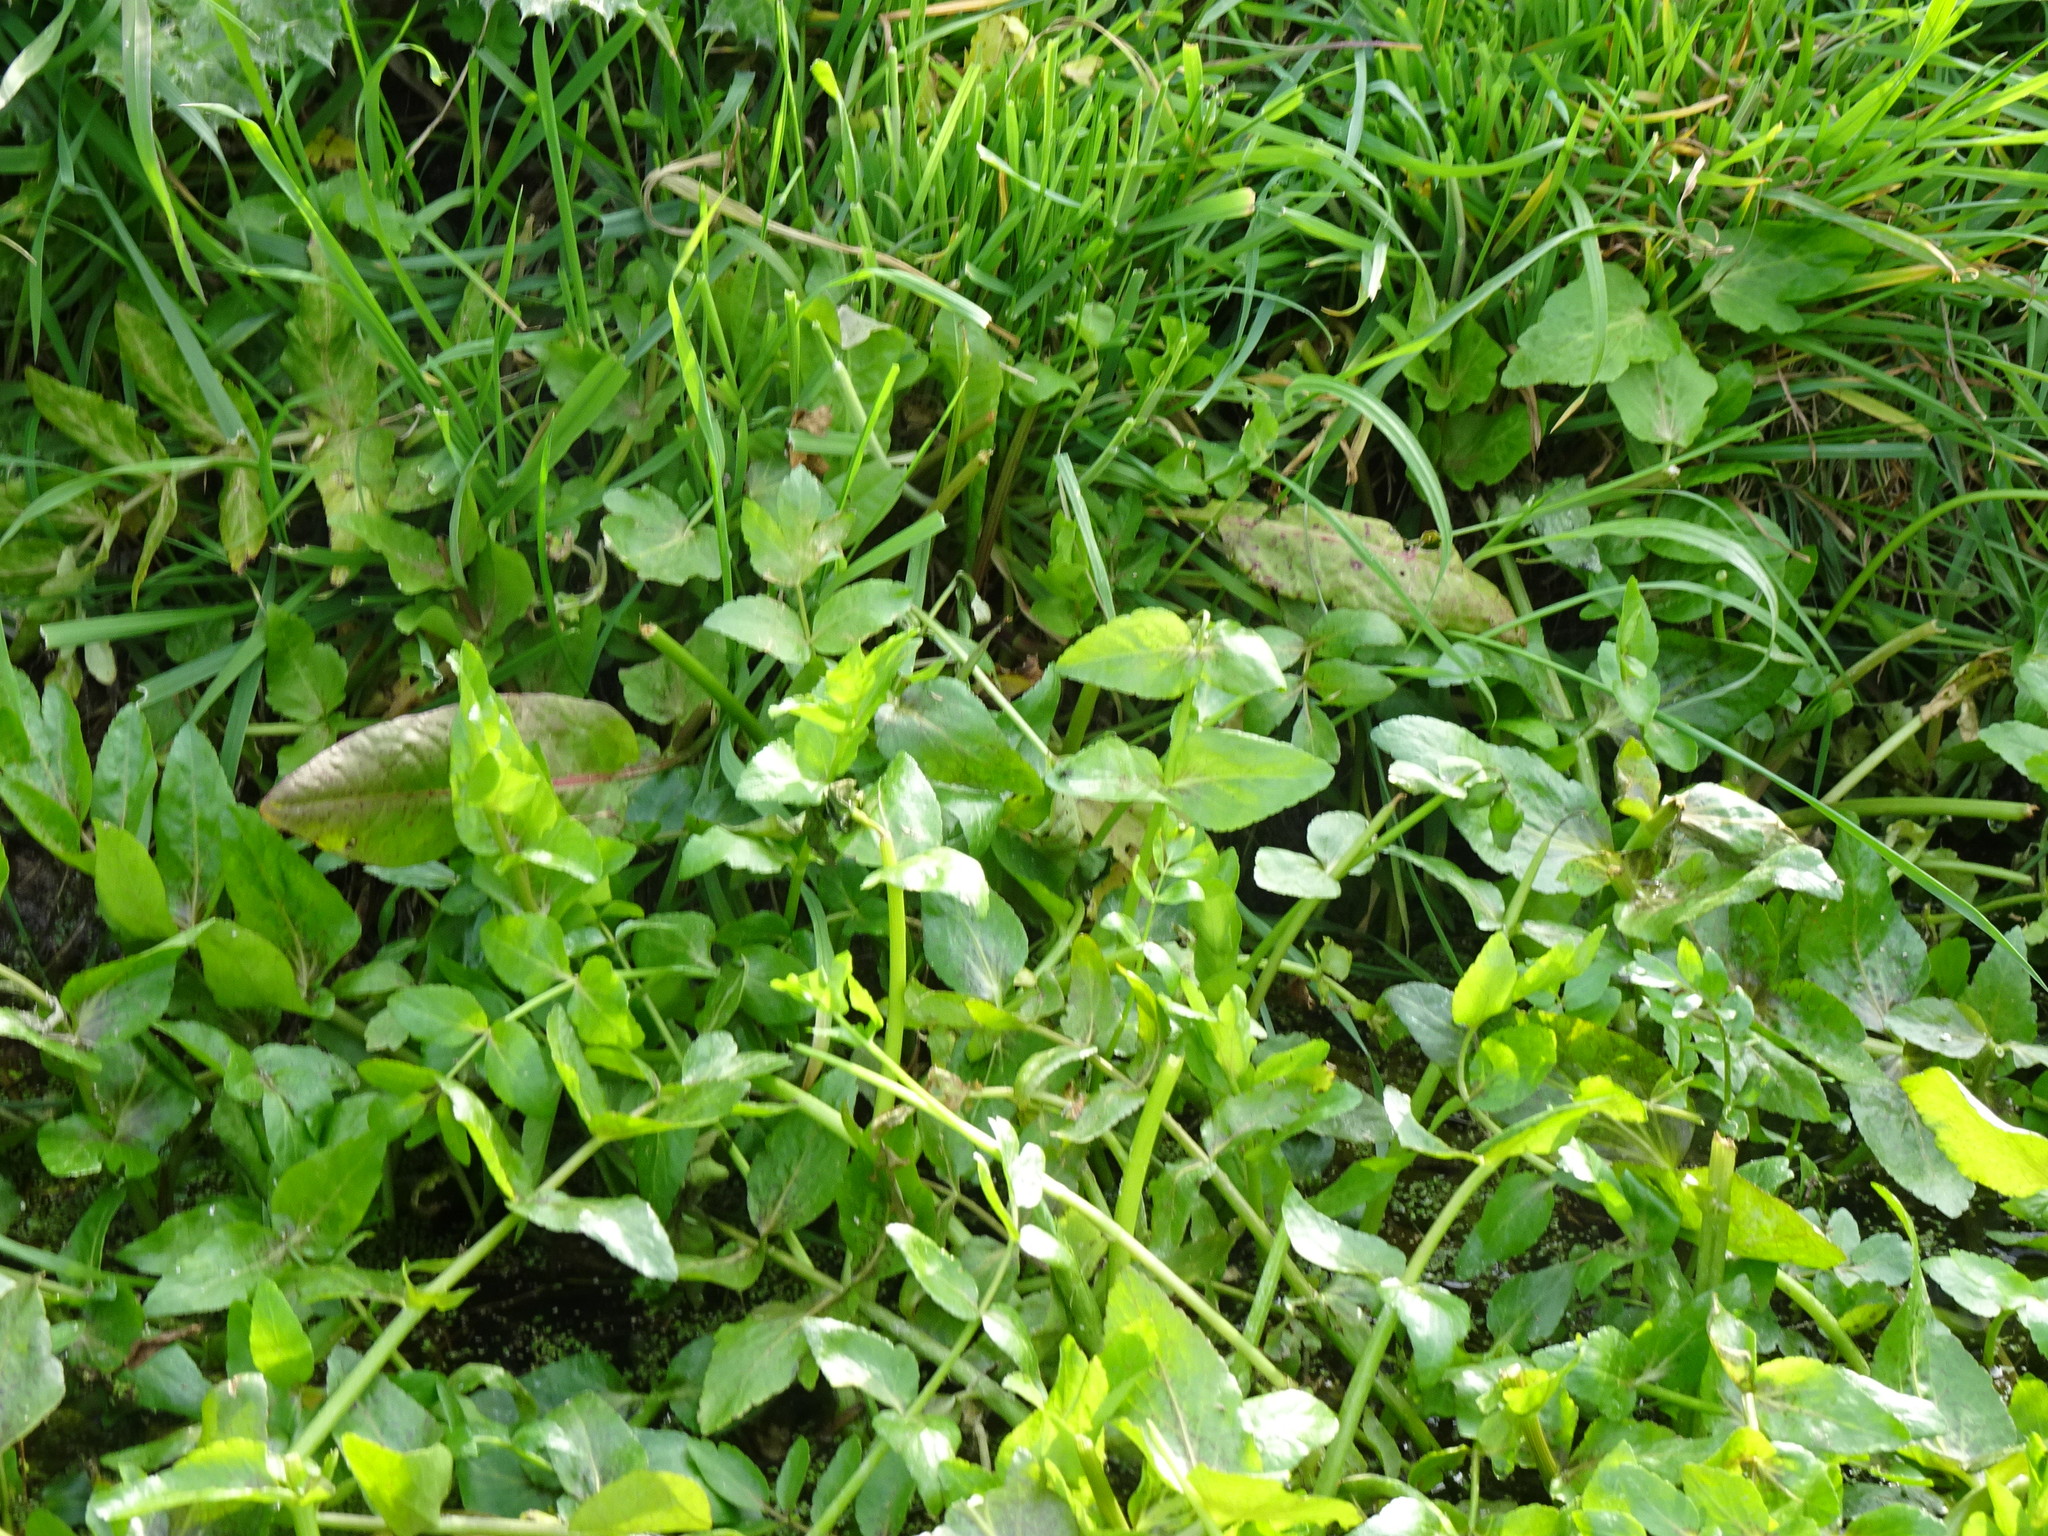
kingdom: Plantae
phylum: Tracheophyta
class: Magnoliopsida
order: Apiales
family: Apiaceae
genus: Helosciadium
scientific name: Helosciadium nodiflorum
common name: Fool's-watercress
